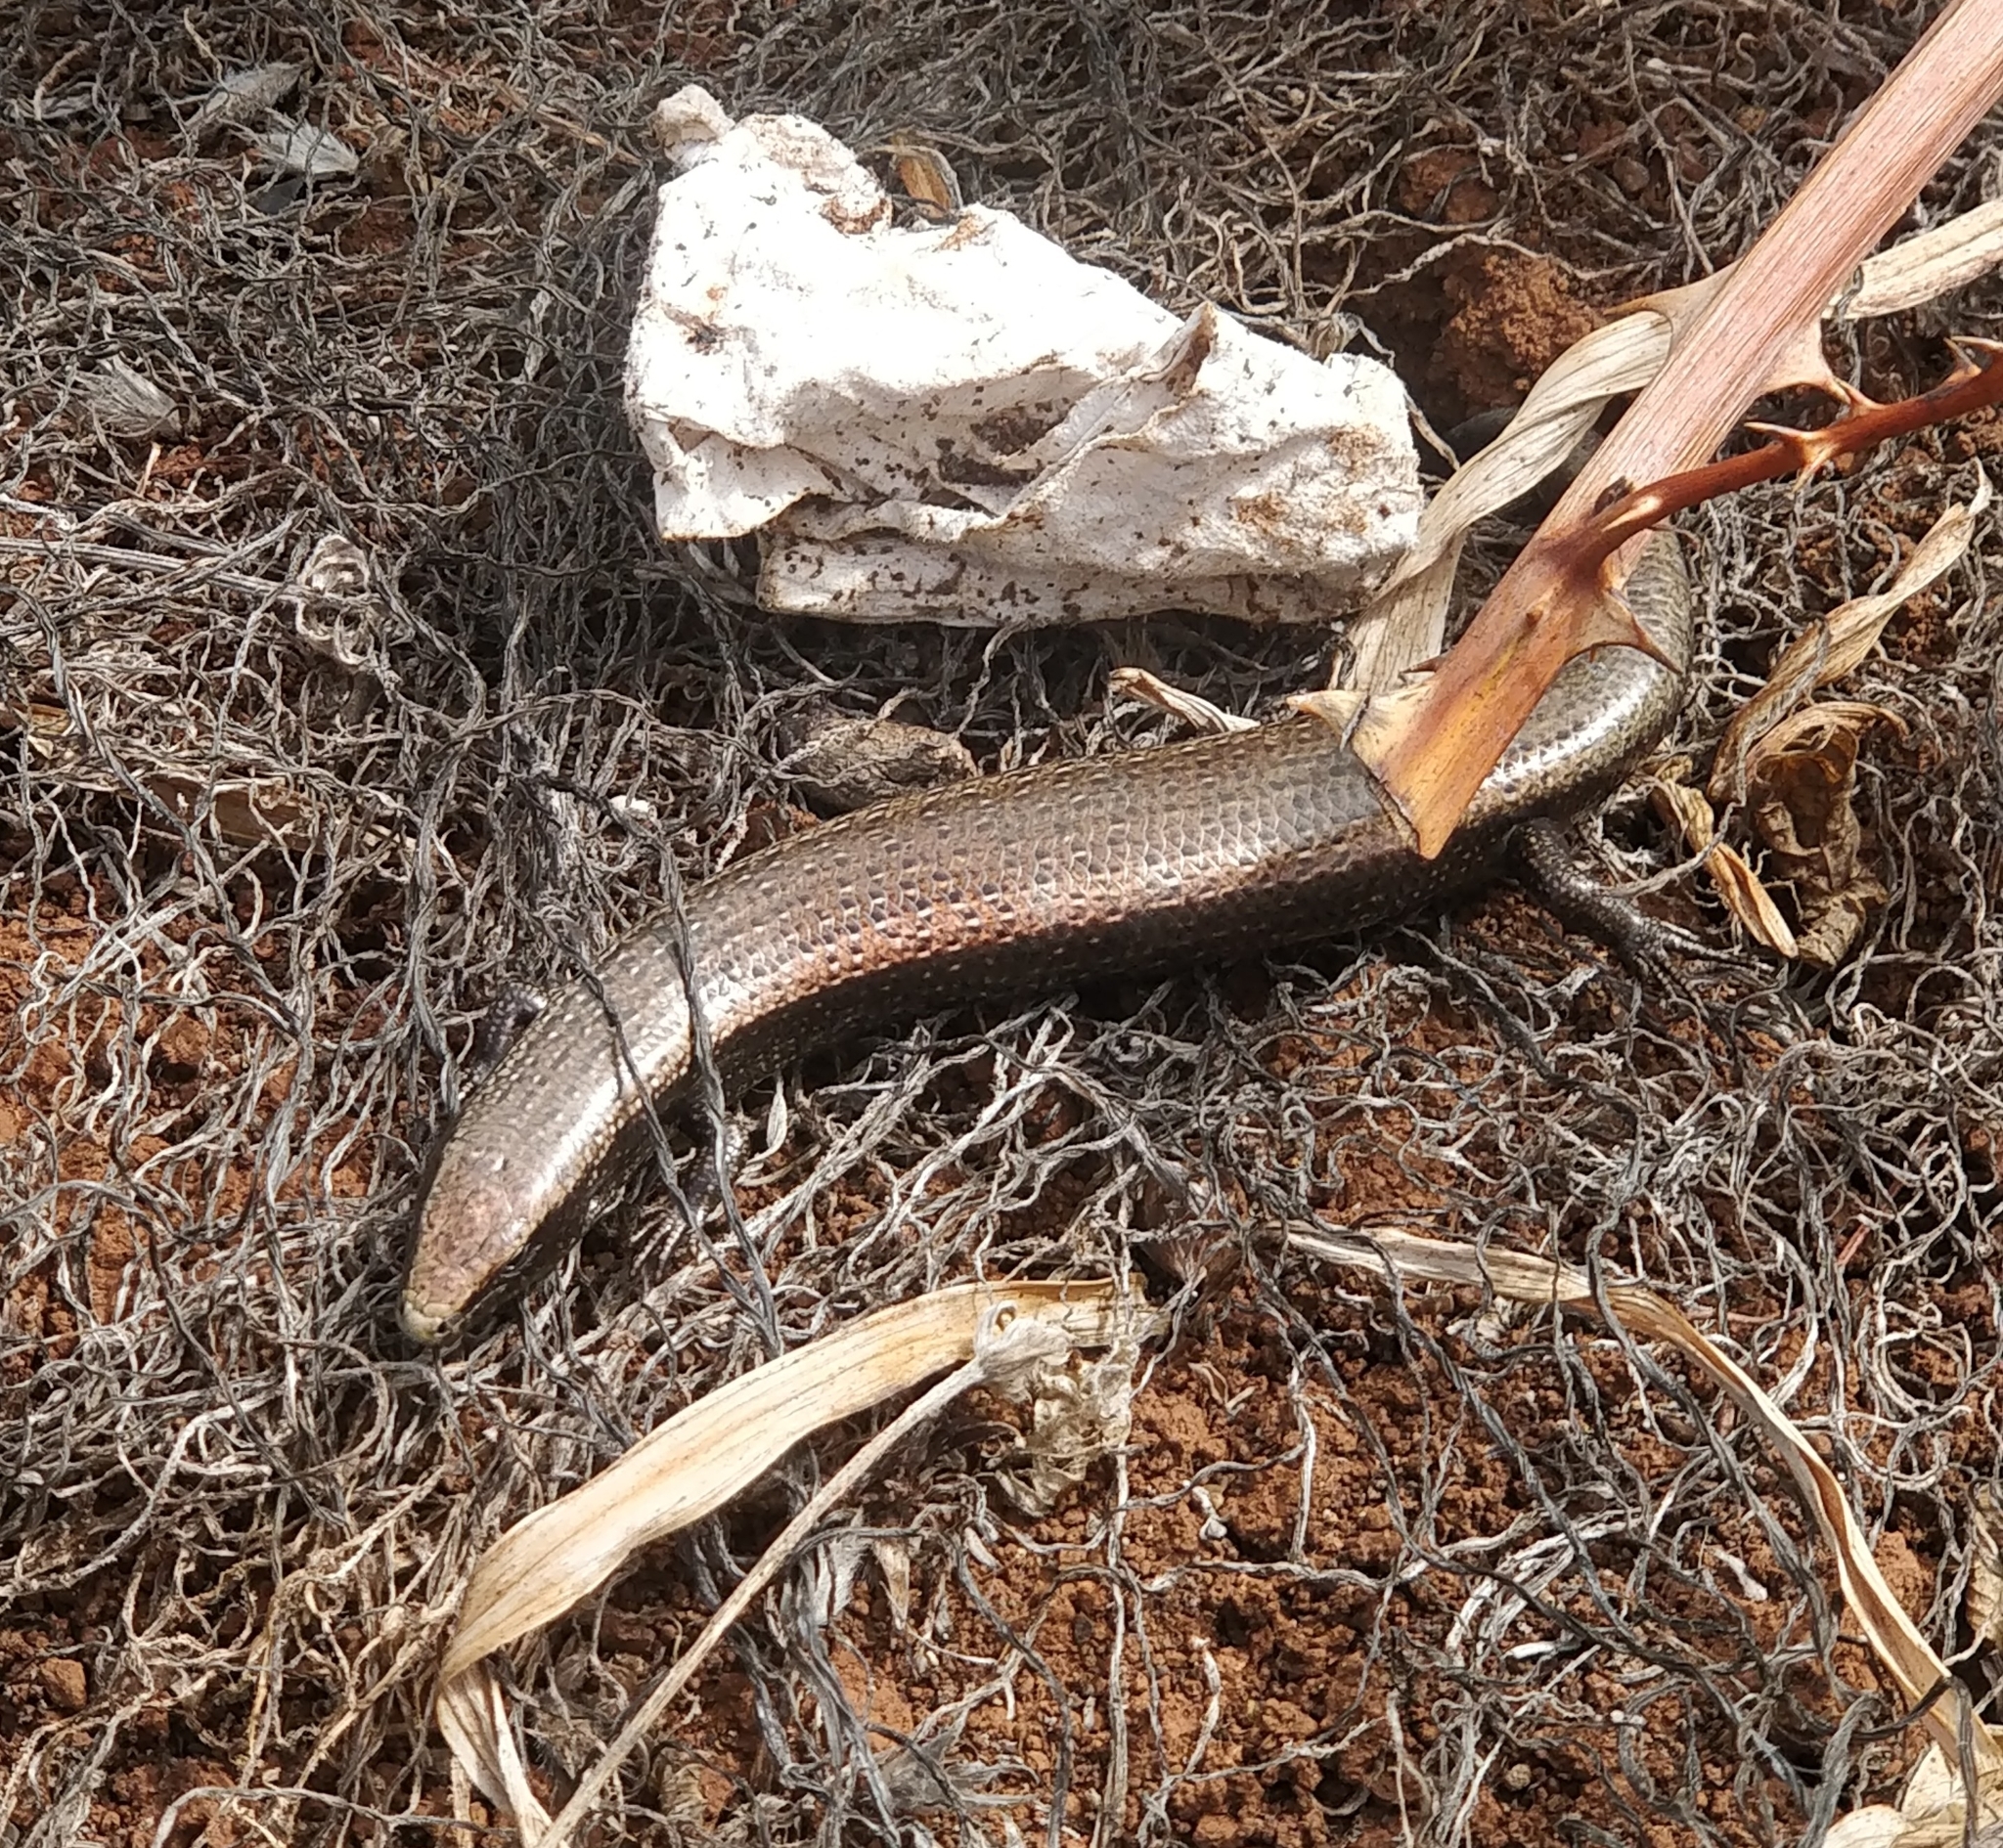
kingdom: Animalia
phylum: Chordata
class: Squamata
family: Scincidae
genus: Chalcides
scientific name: Chalcides viridanus
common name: Canaryan cylindrical skink
